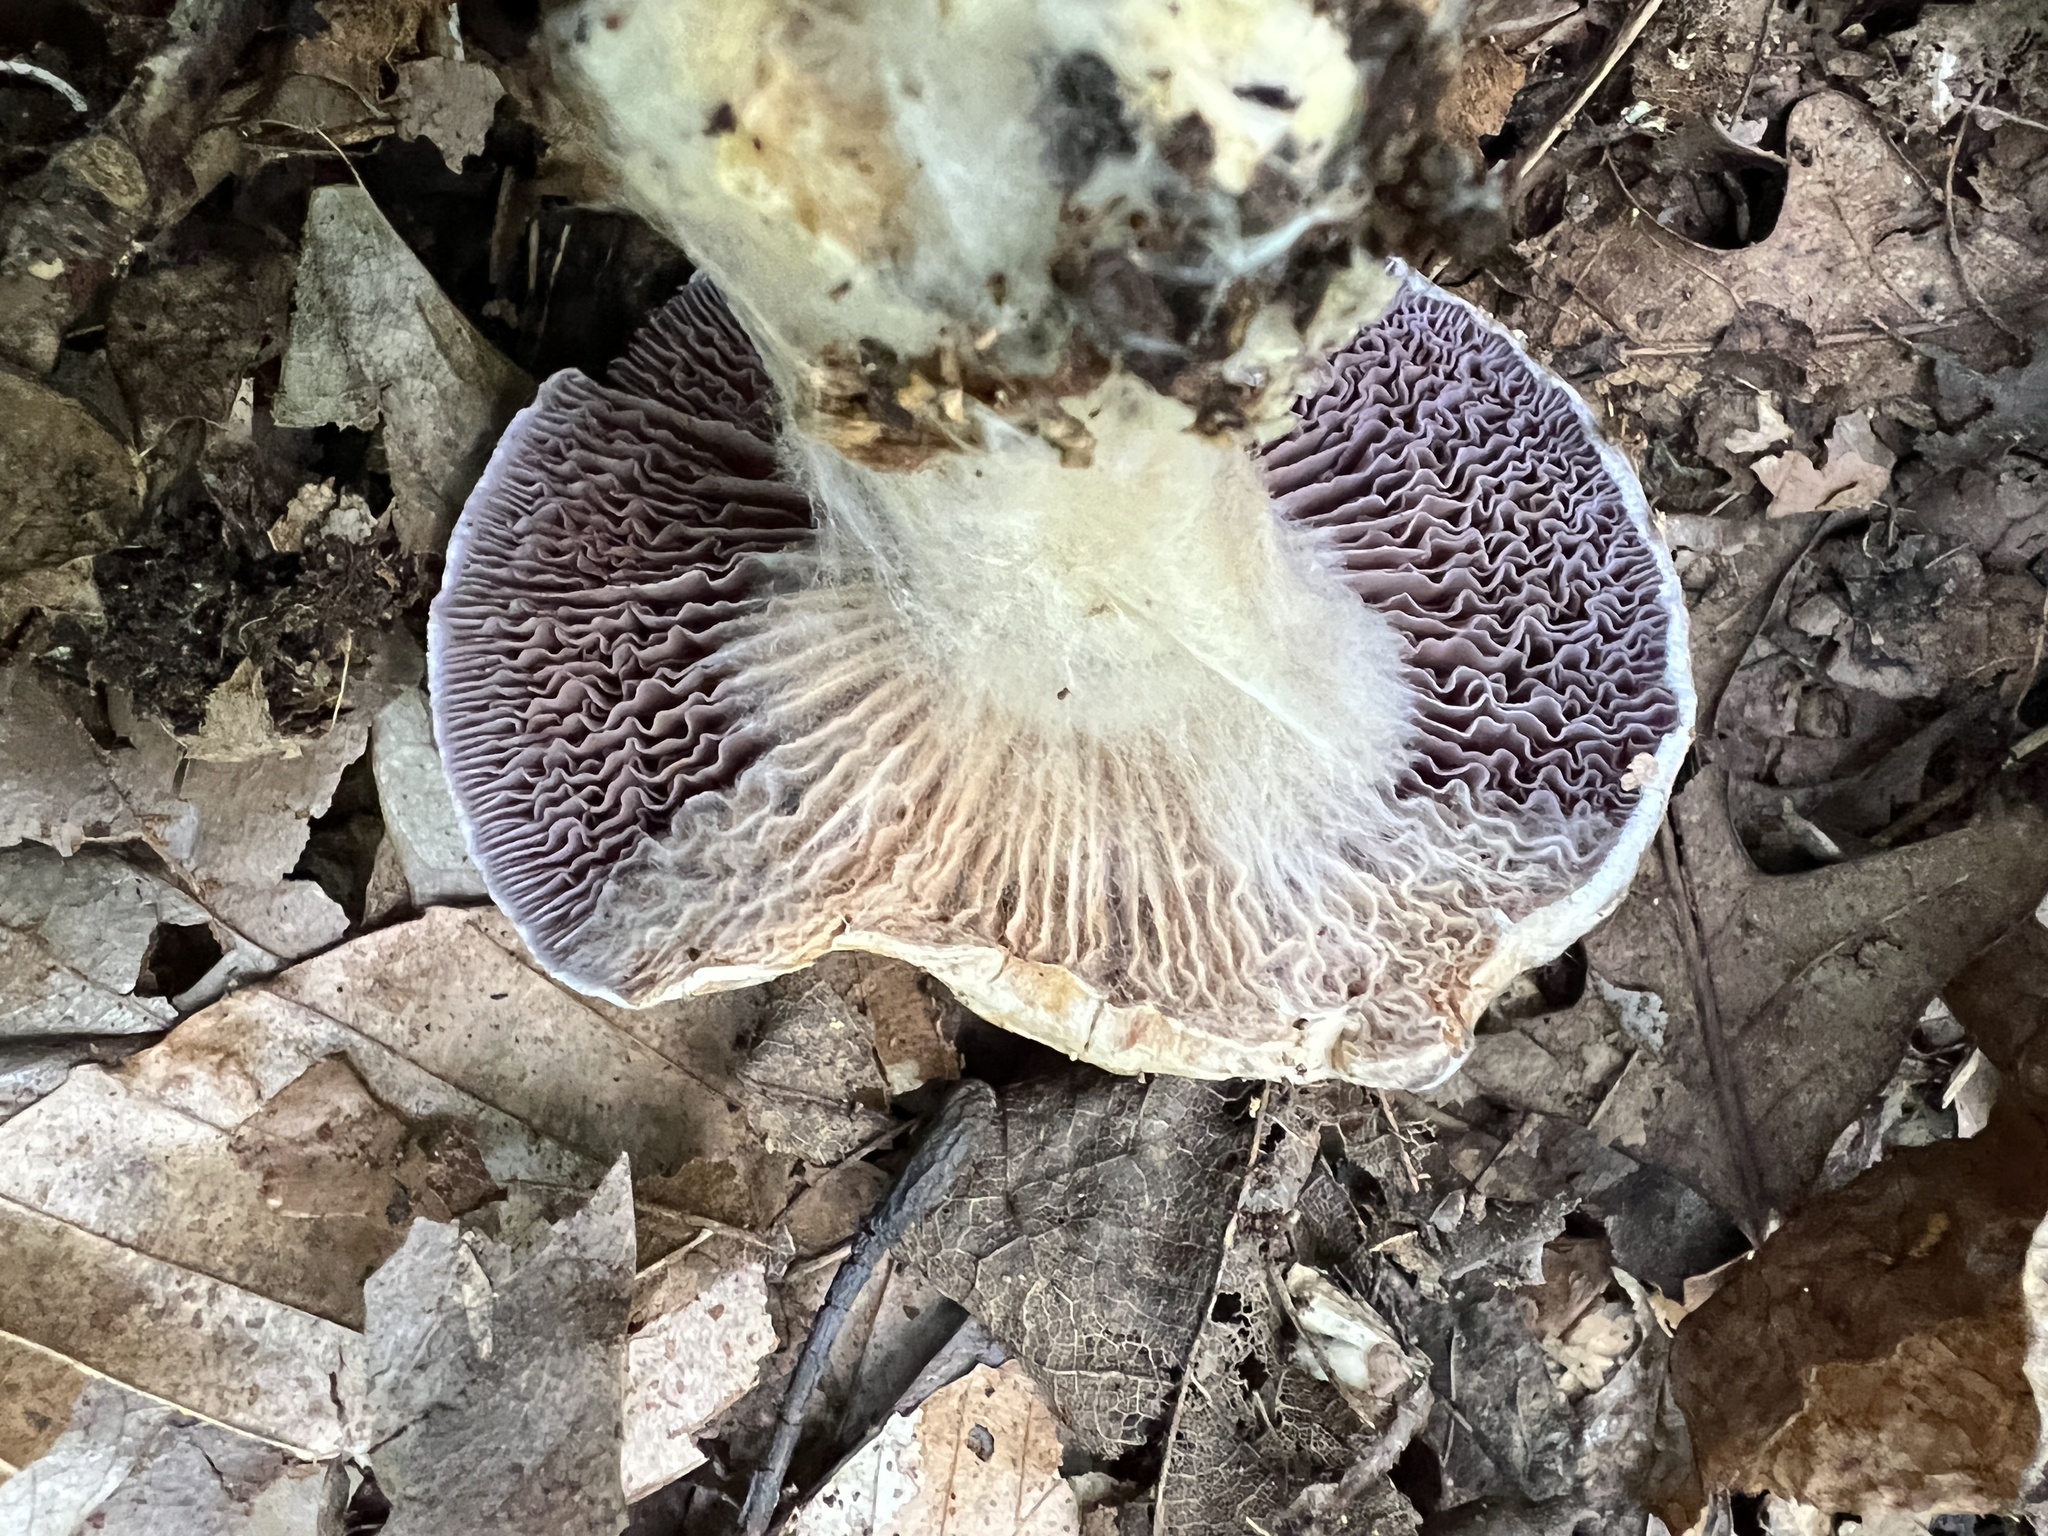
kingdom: Fungi
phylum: Basidiomycota
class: Agaricomycetes
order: Agaricales
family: Cortinariaceae
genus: Cortinarius
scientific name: Cortinarius obliquus
